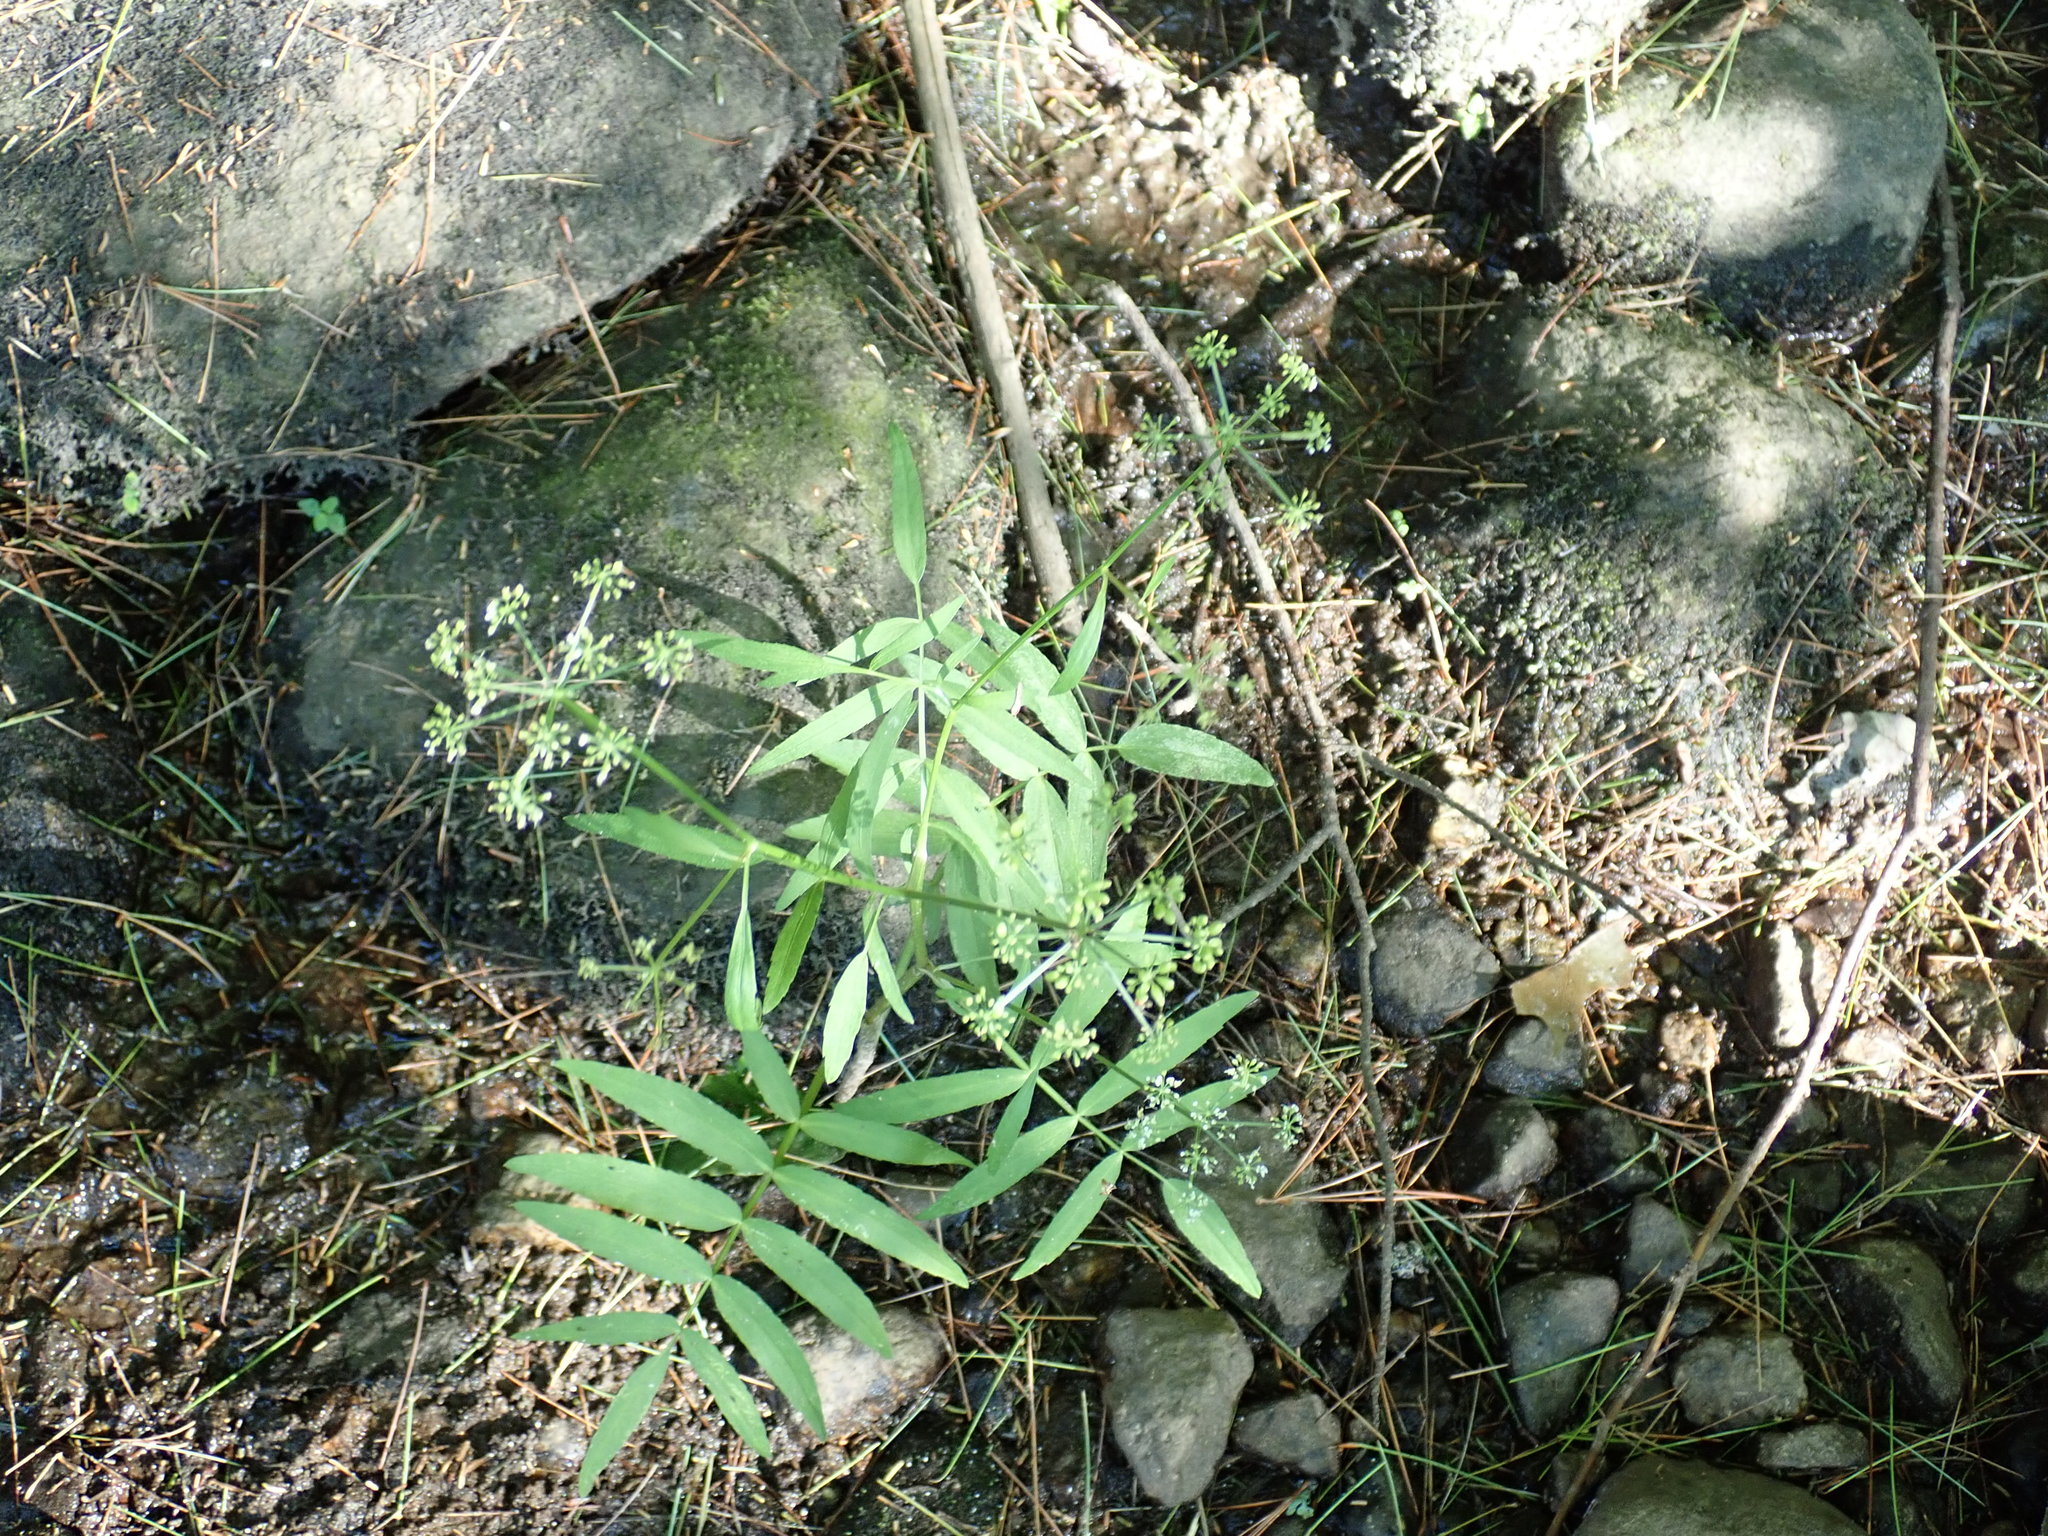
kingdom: Plantae
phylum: Tracheophyta
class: Magnoliopsida
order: Apiales
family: Apiaceae
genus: Sium
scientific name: Sium suave
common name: Hemlock water-parsnip
